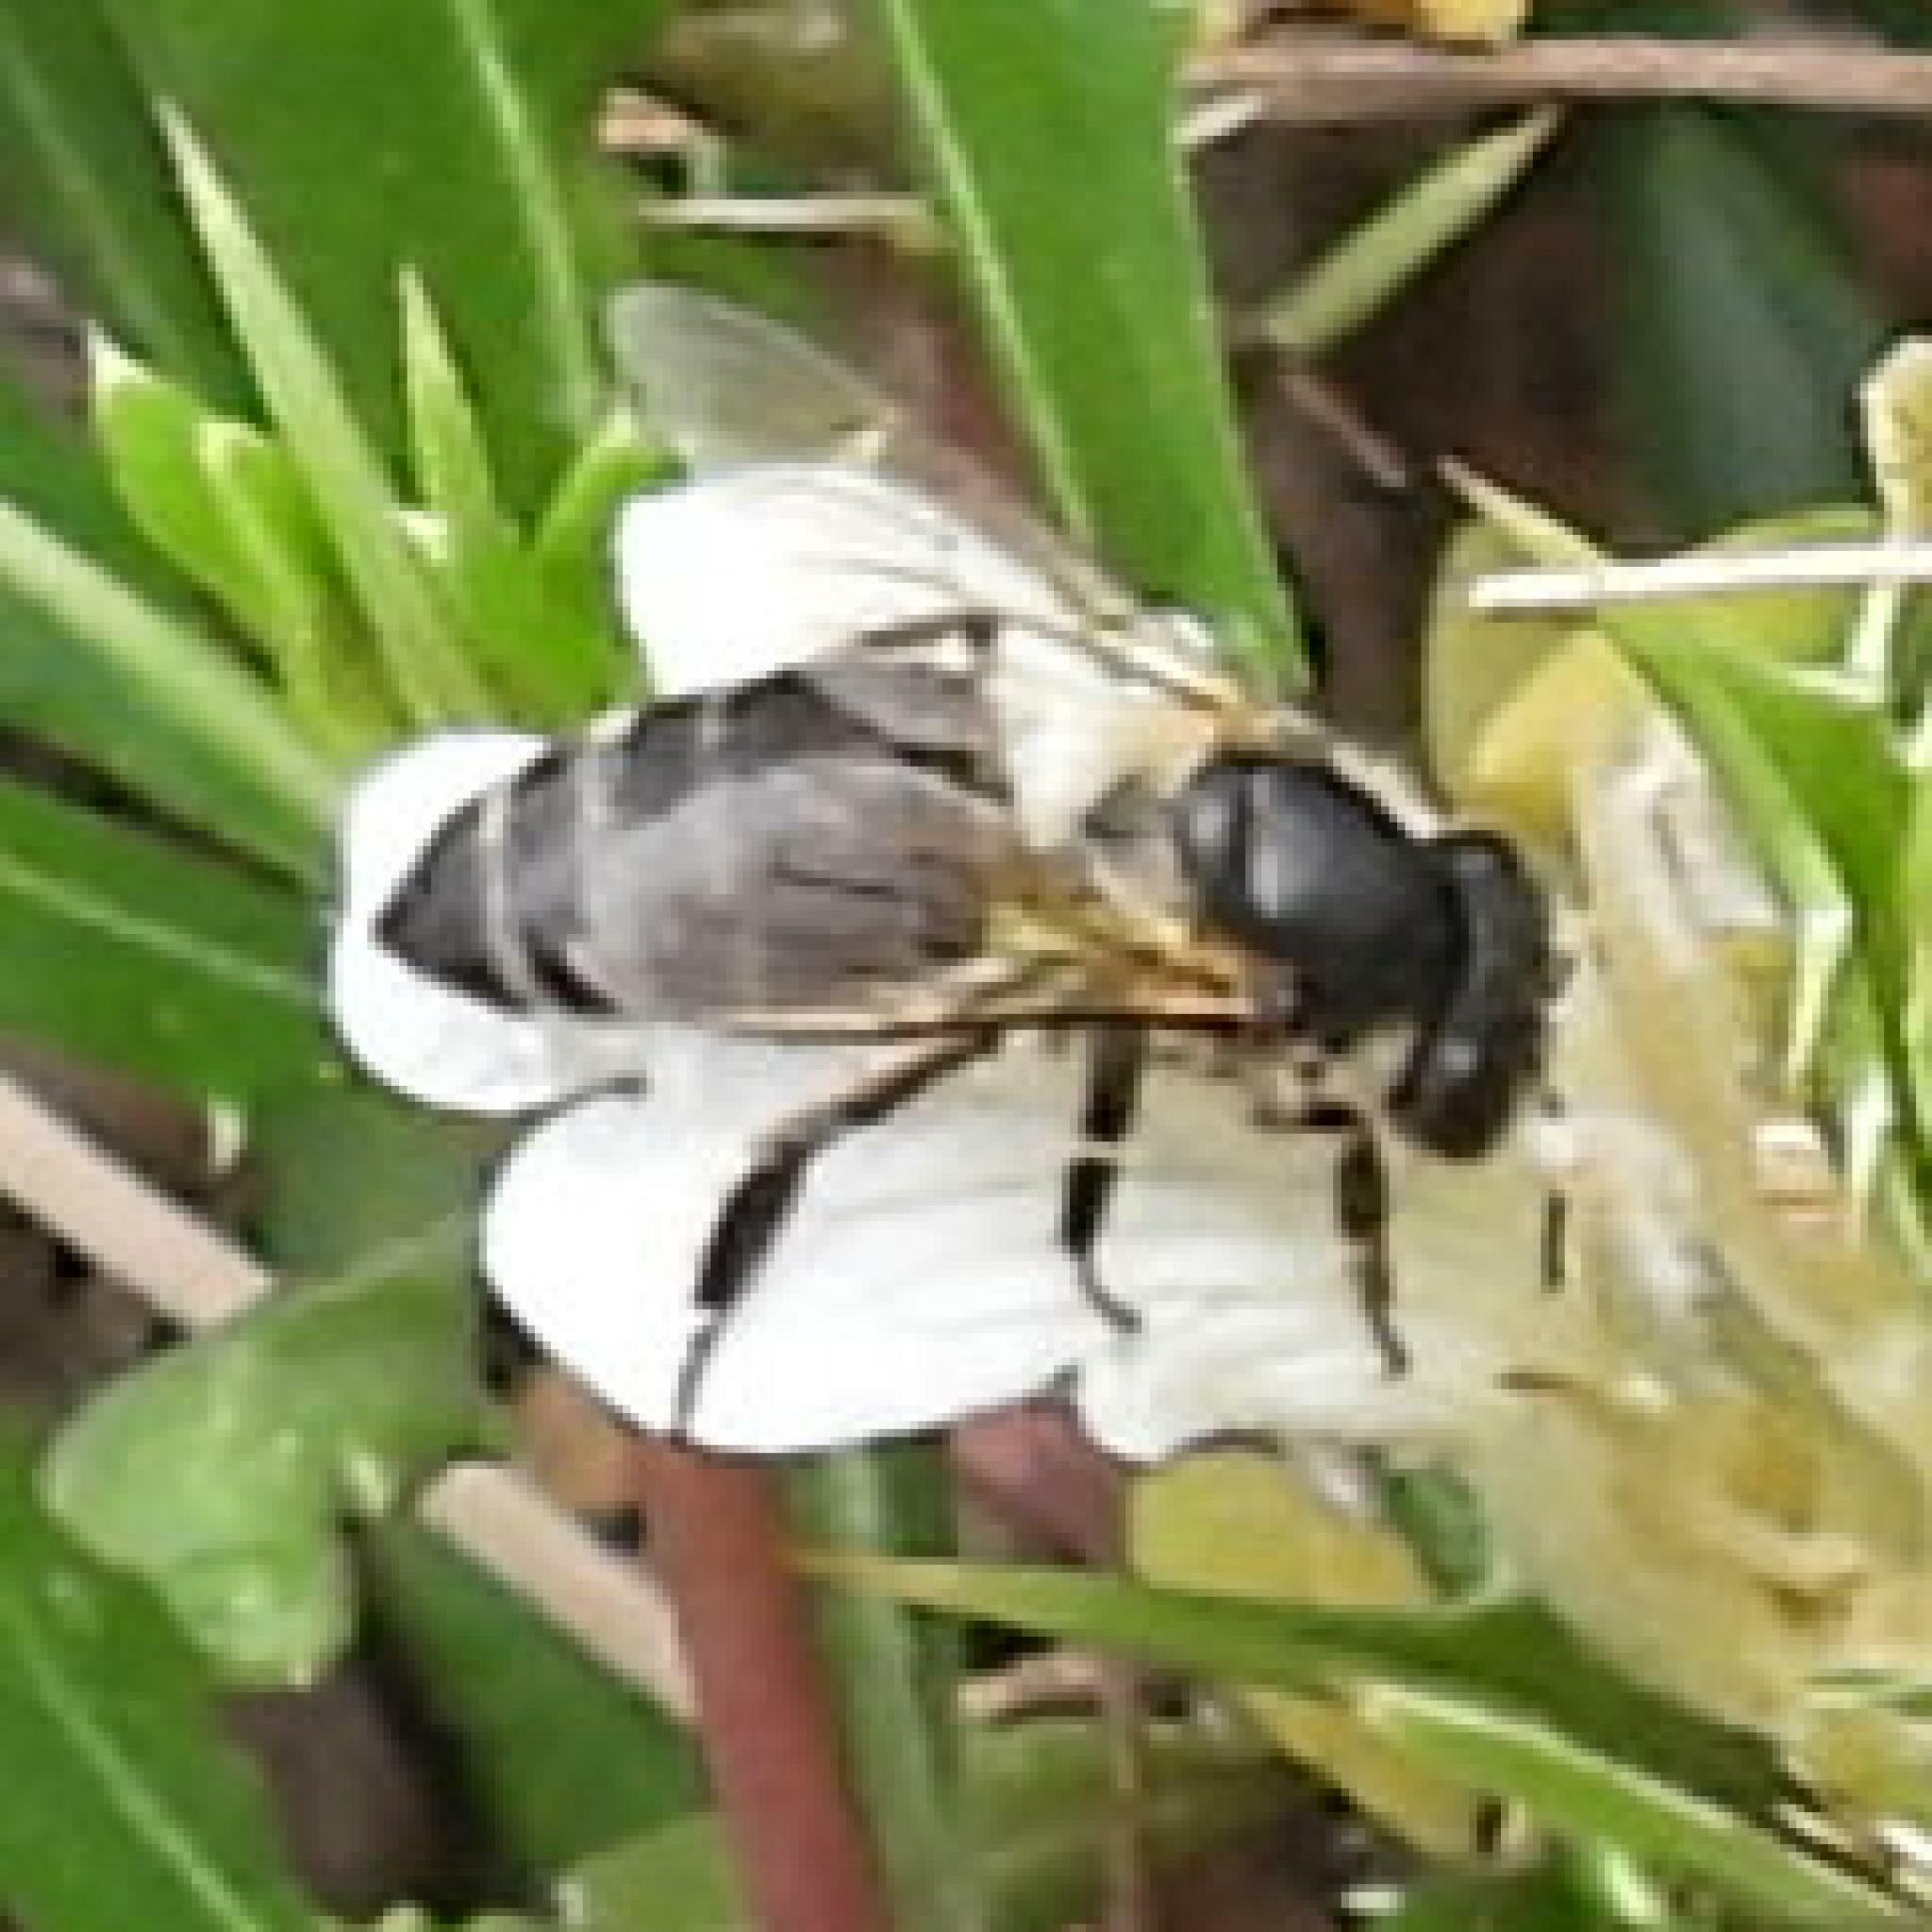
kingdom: Animalia
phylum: Arthropoda
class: Insecta
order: Hymenoptera
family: Apidae
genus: Apis
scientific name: Apis mellifera
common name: Honey bee
